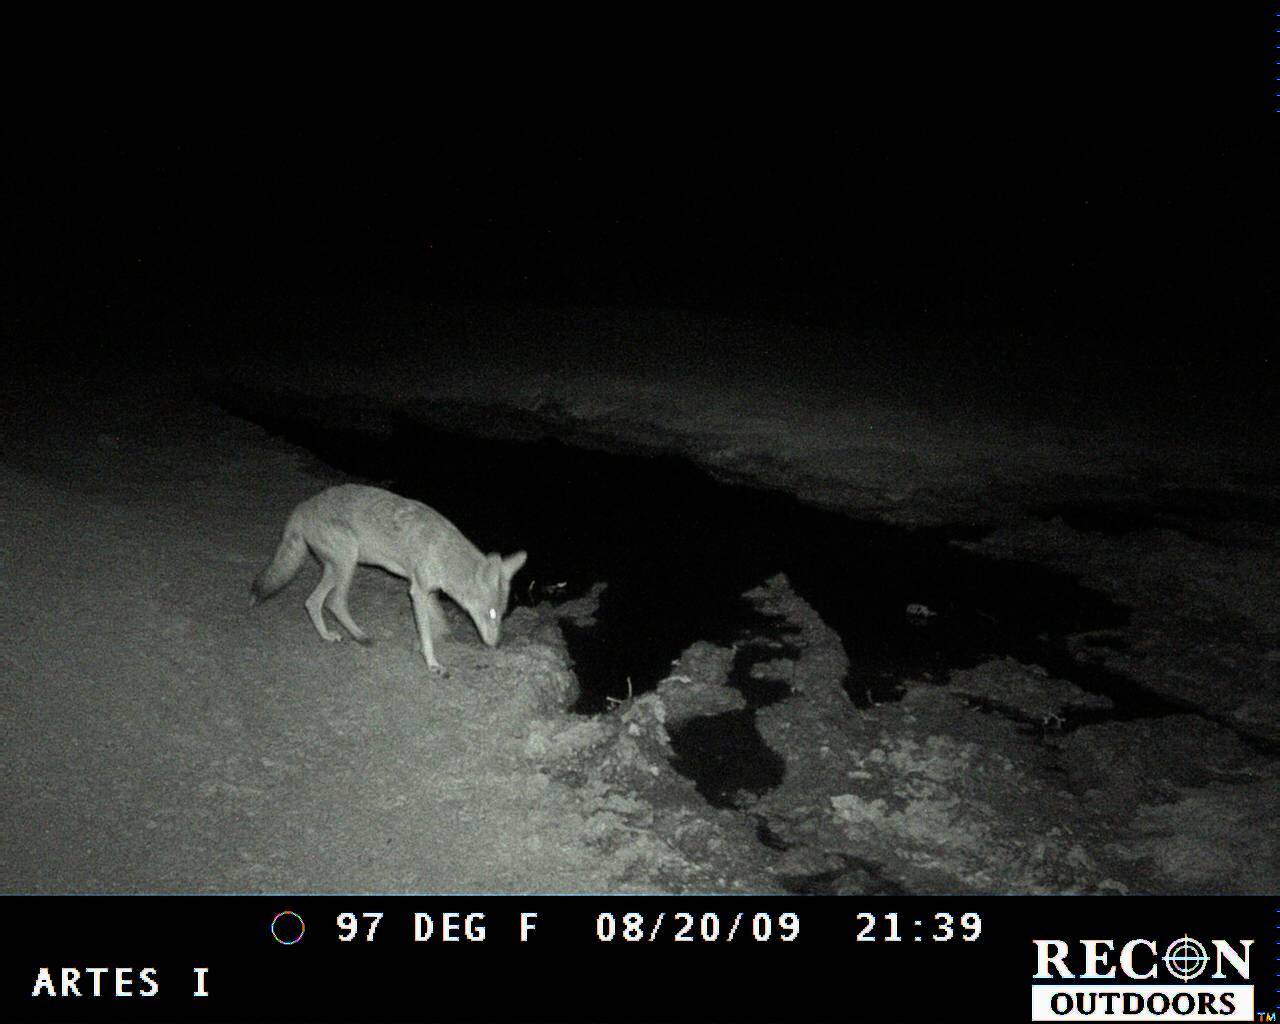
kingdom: Animalia
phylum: Chordata
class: Mammalia
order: Carnivora
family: Canidae
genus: Canis
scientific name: Canis latrans
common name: Coyote
